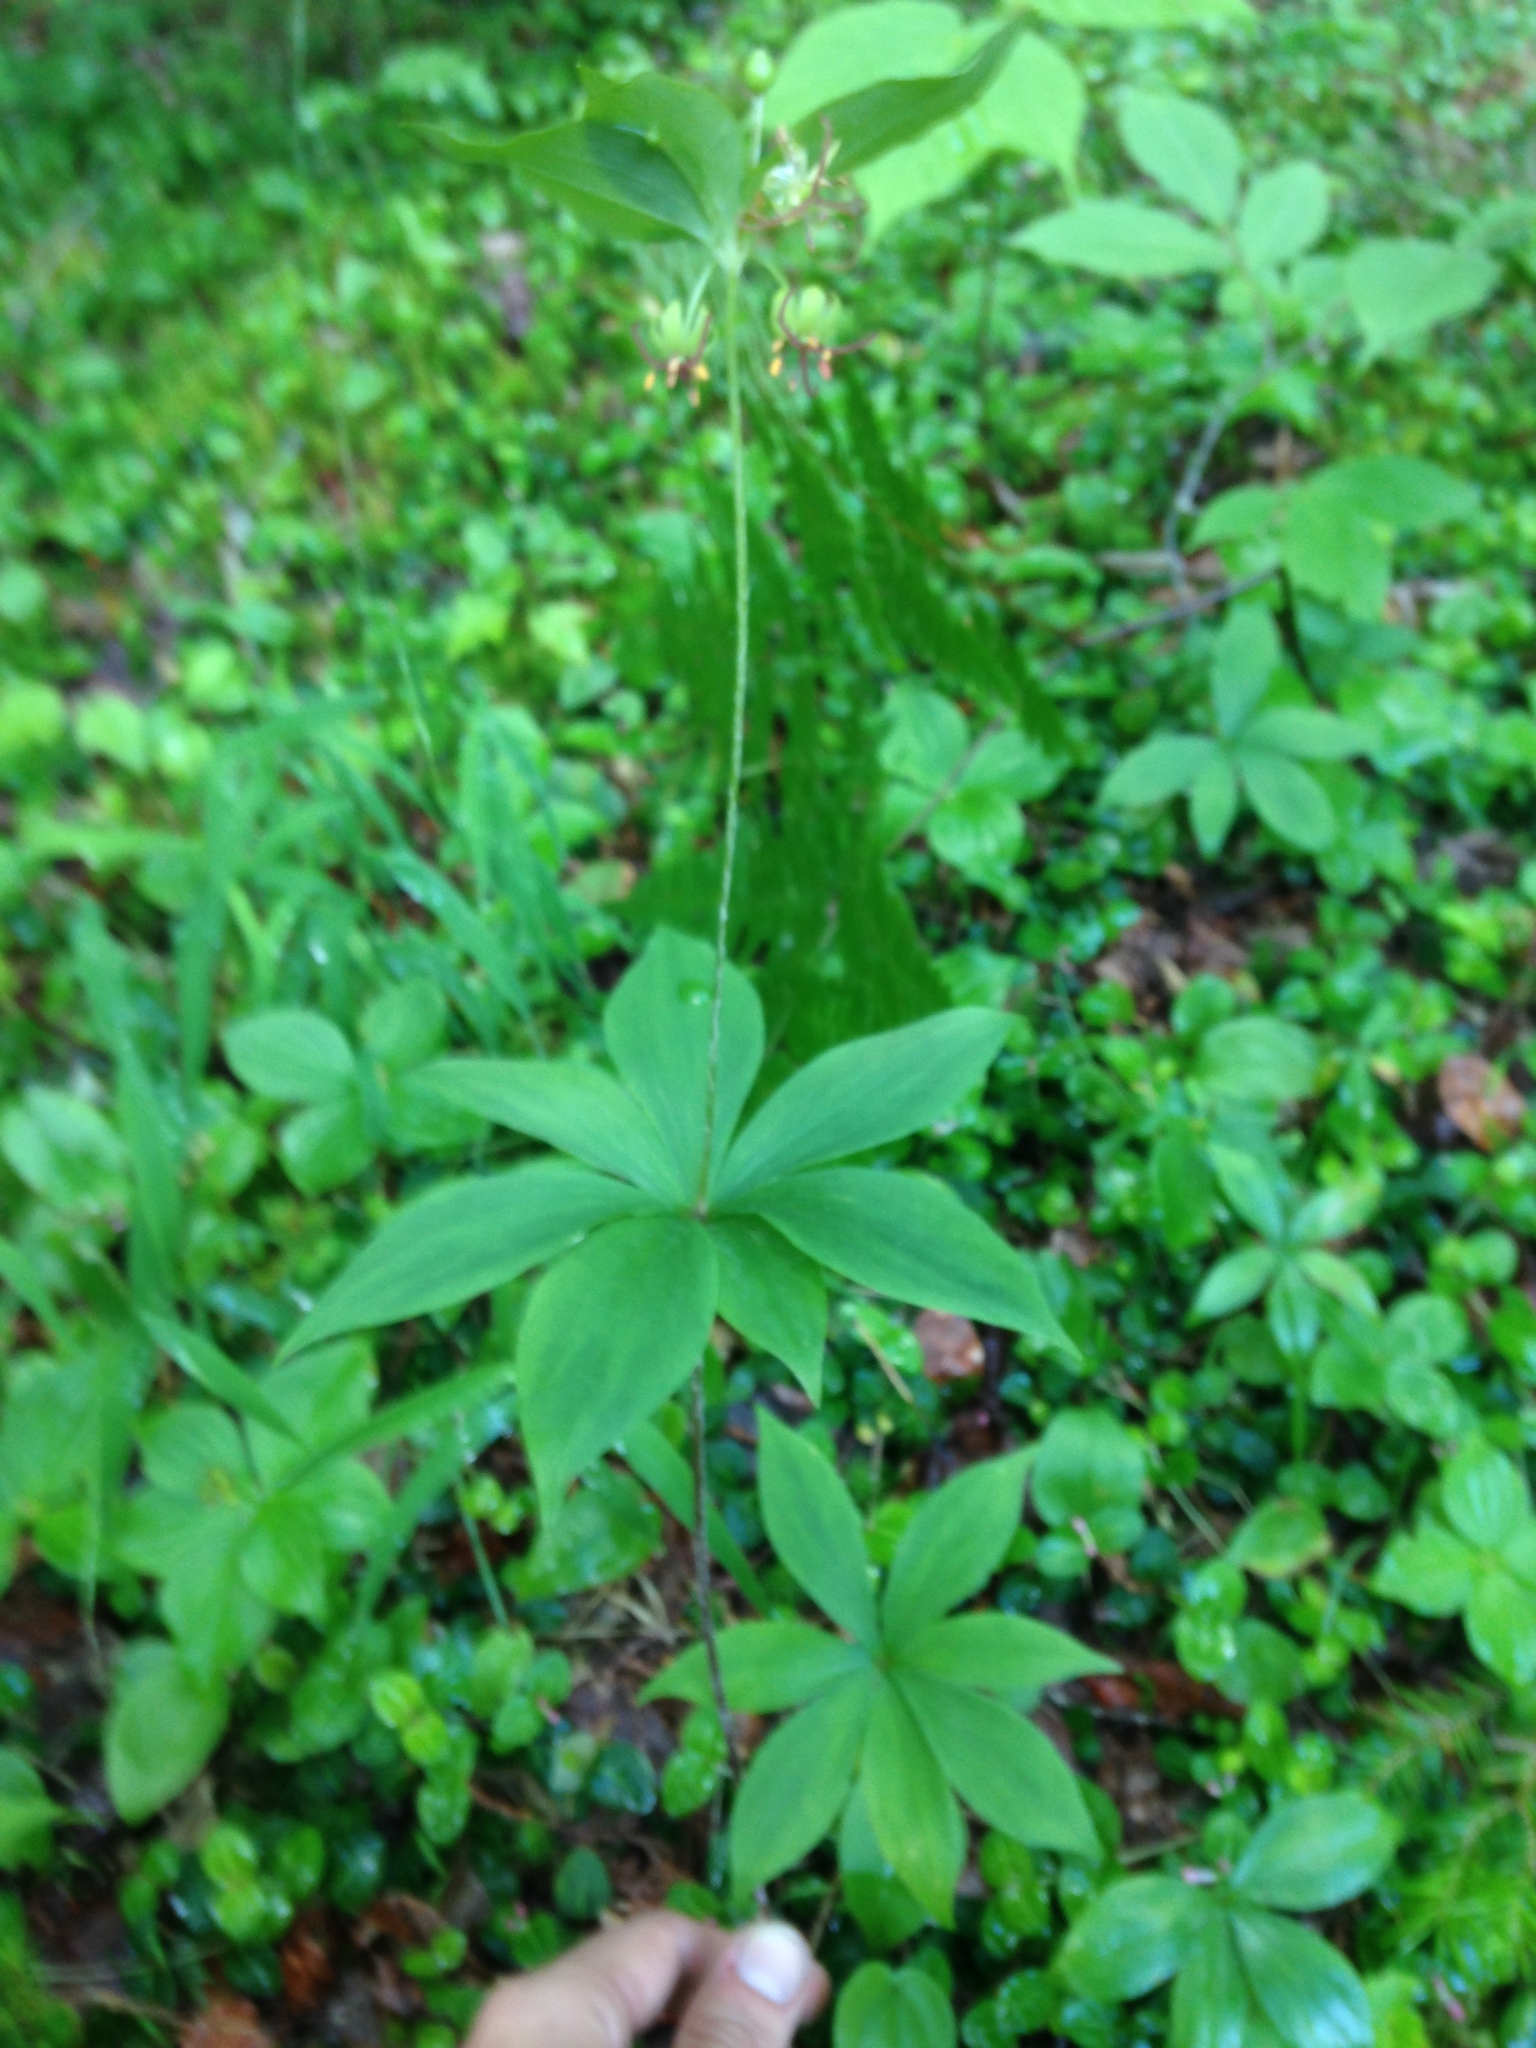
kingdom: Plantae
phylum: Tracheophyta
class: Liliopsida
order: Liliales
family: Liliaceae
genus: Medeola
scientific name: Medeola virginiana
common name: Indian cucumber-root
